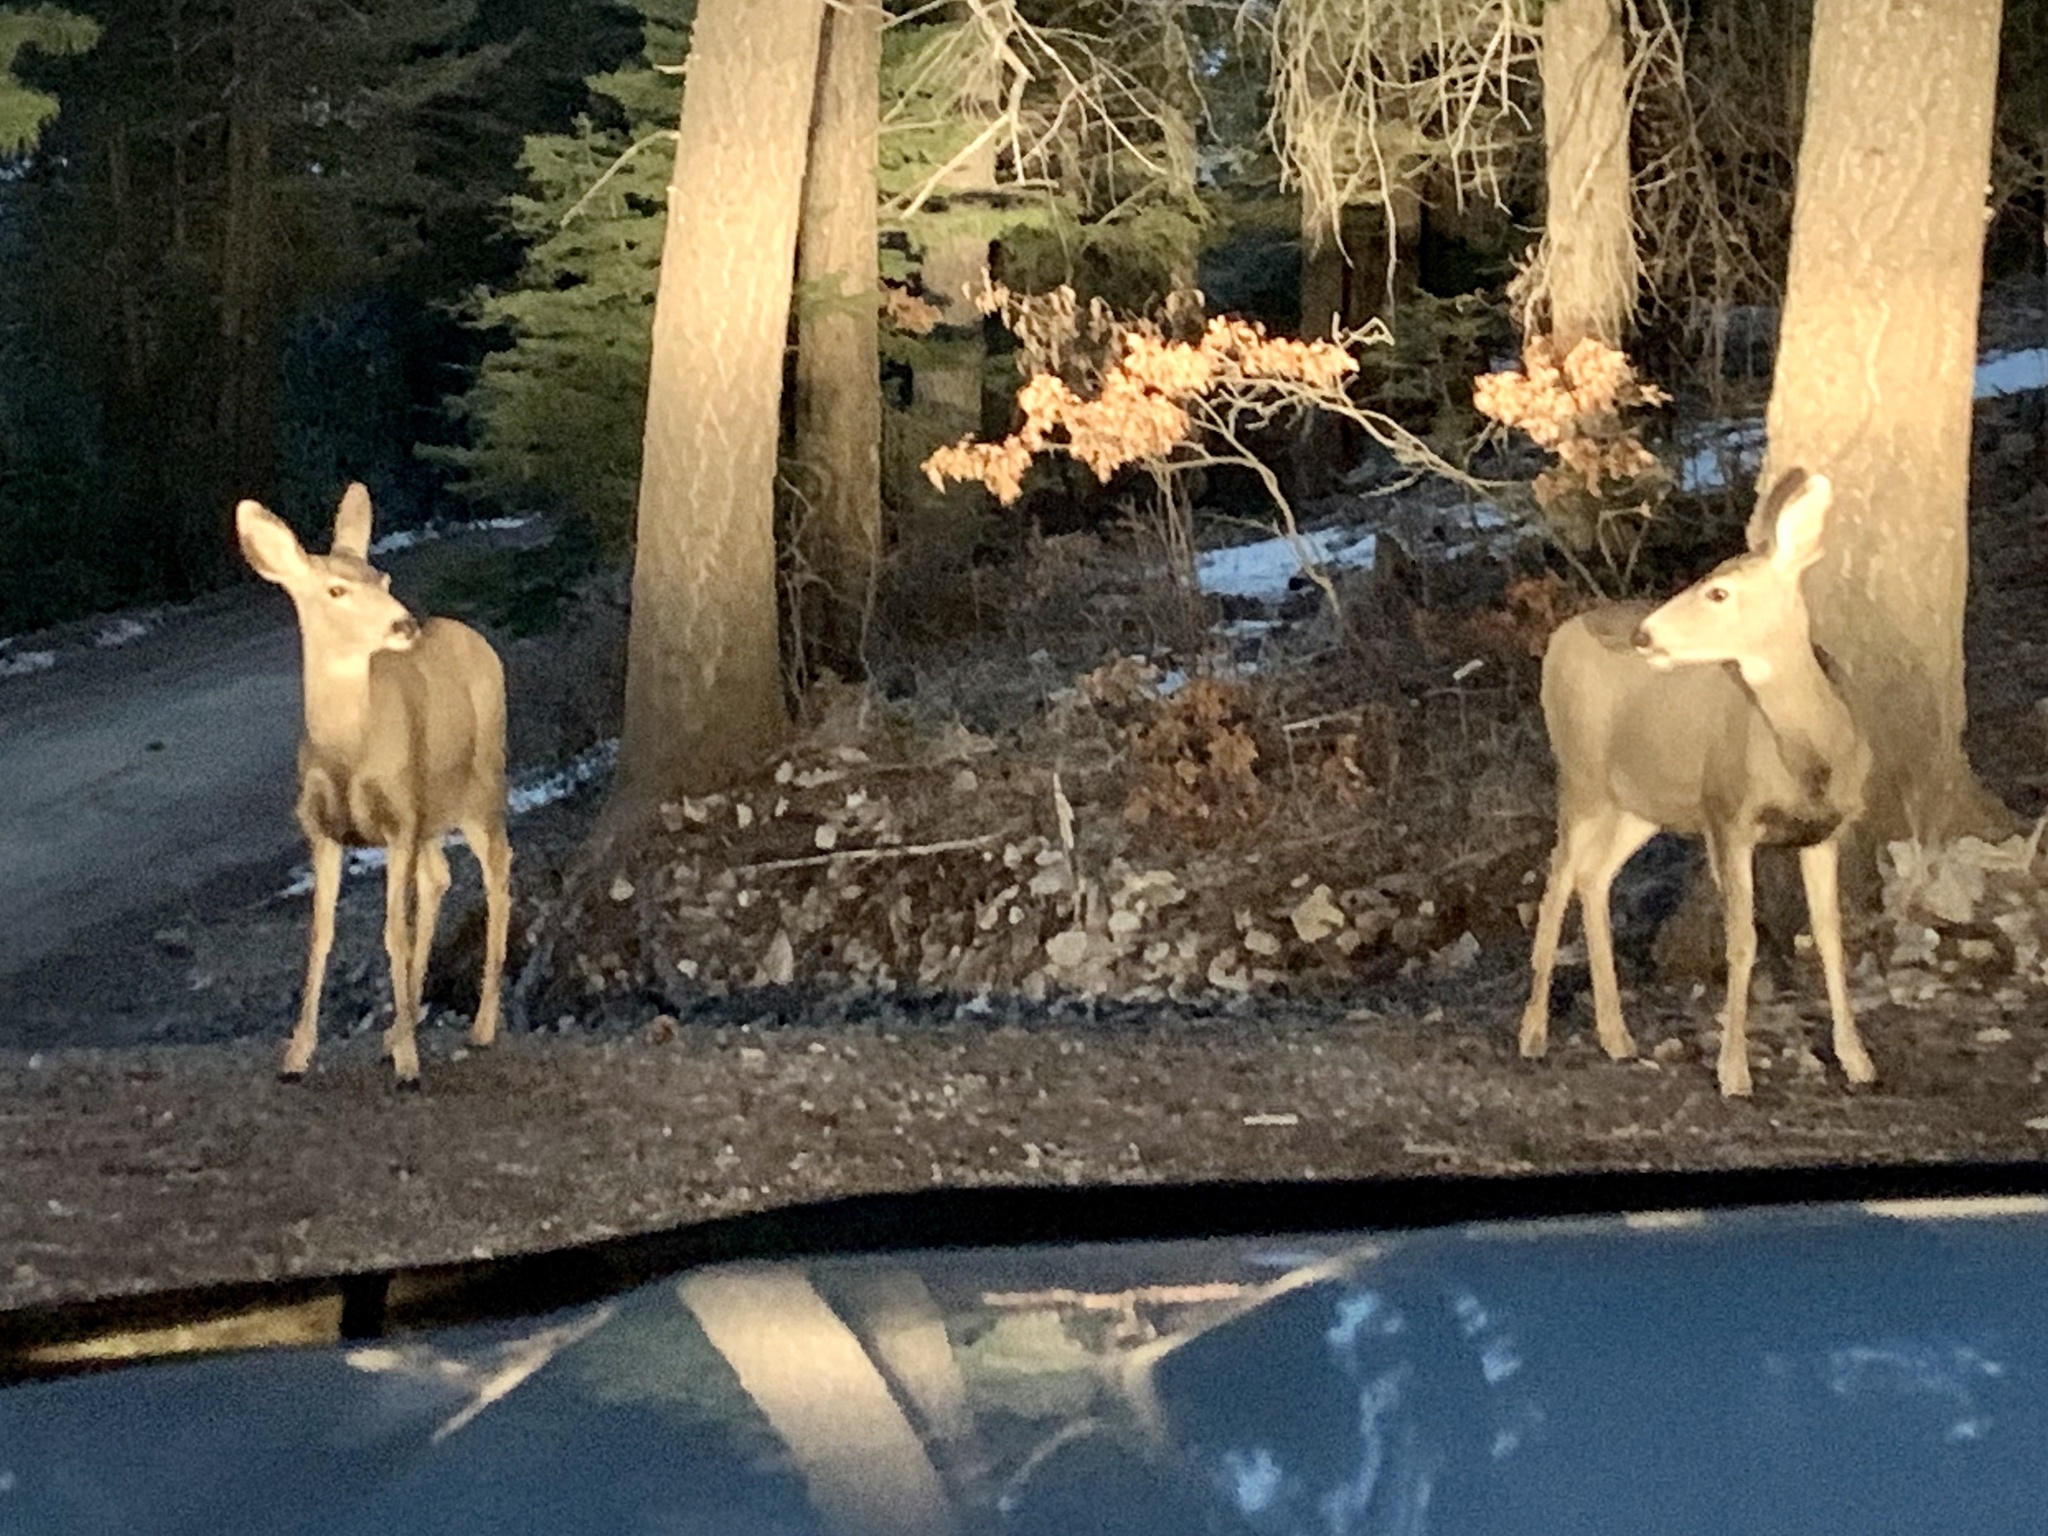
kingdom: Animalia
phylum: Chordata
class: Mammalia
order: Artiodactyla
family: Cervidae
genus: Odocoileus
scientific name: Odocoileus hemionus
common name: Mule deer
